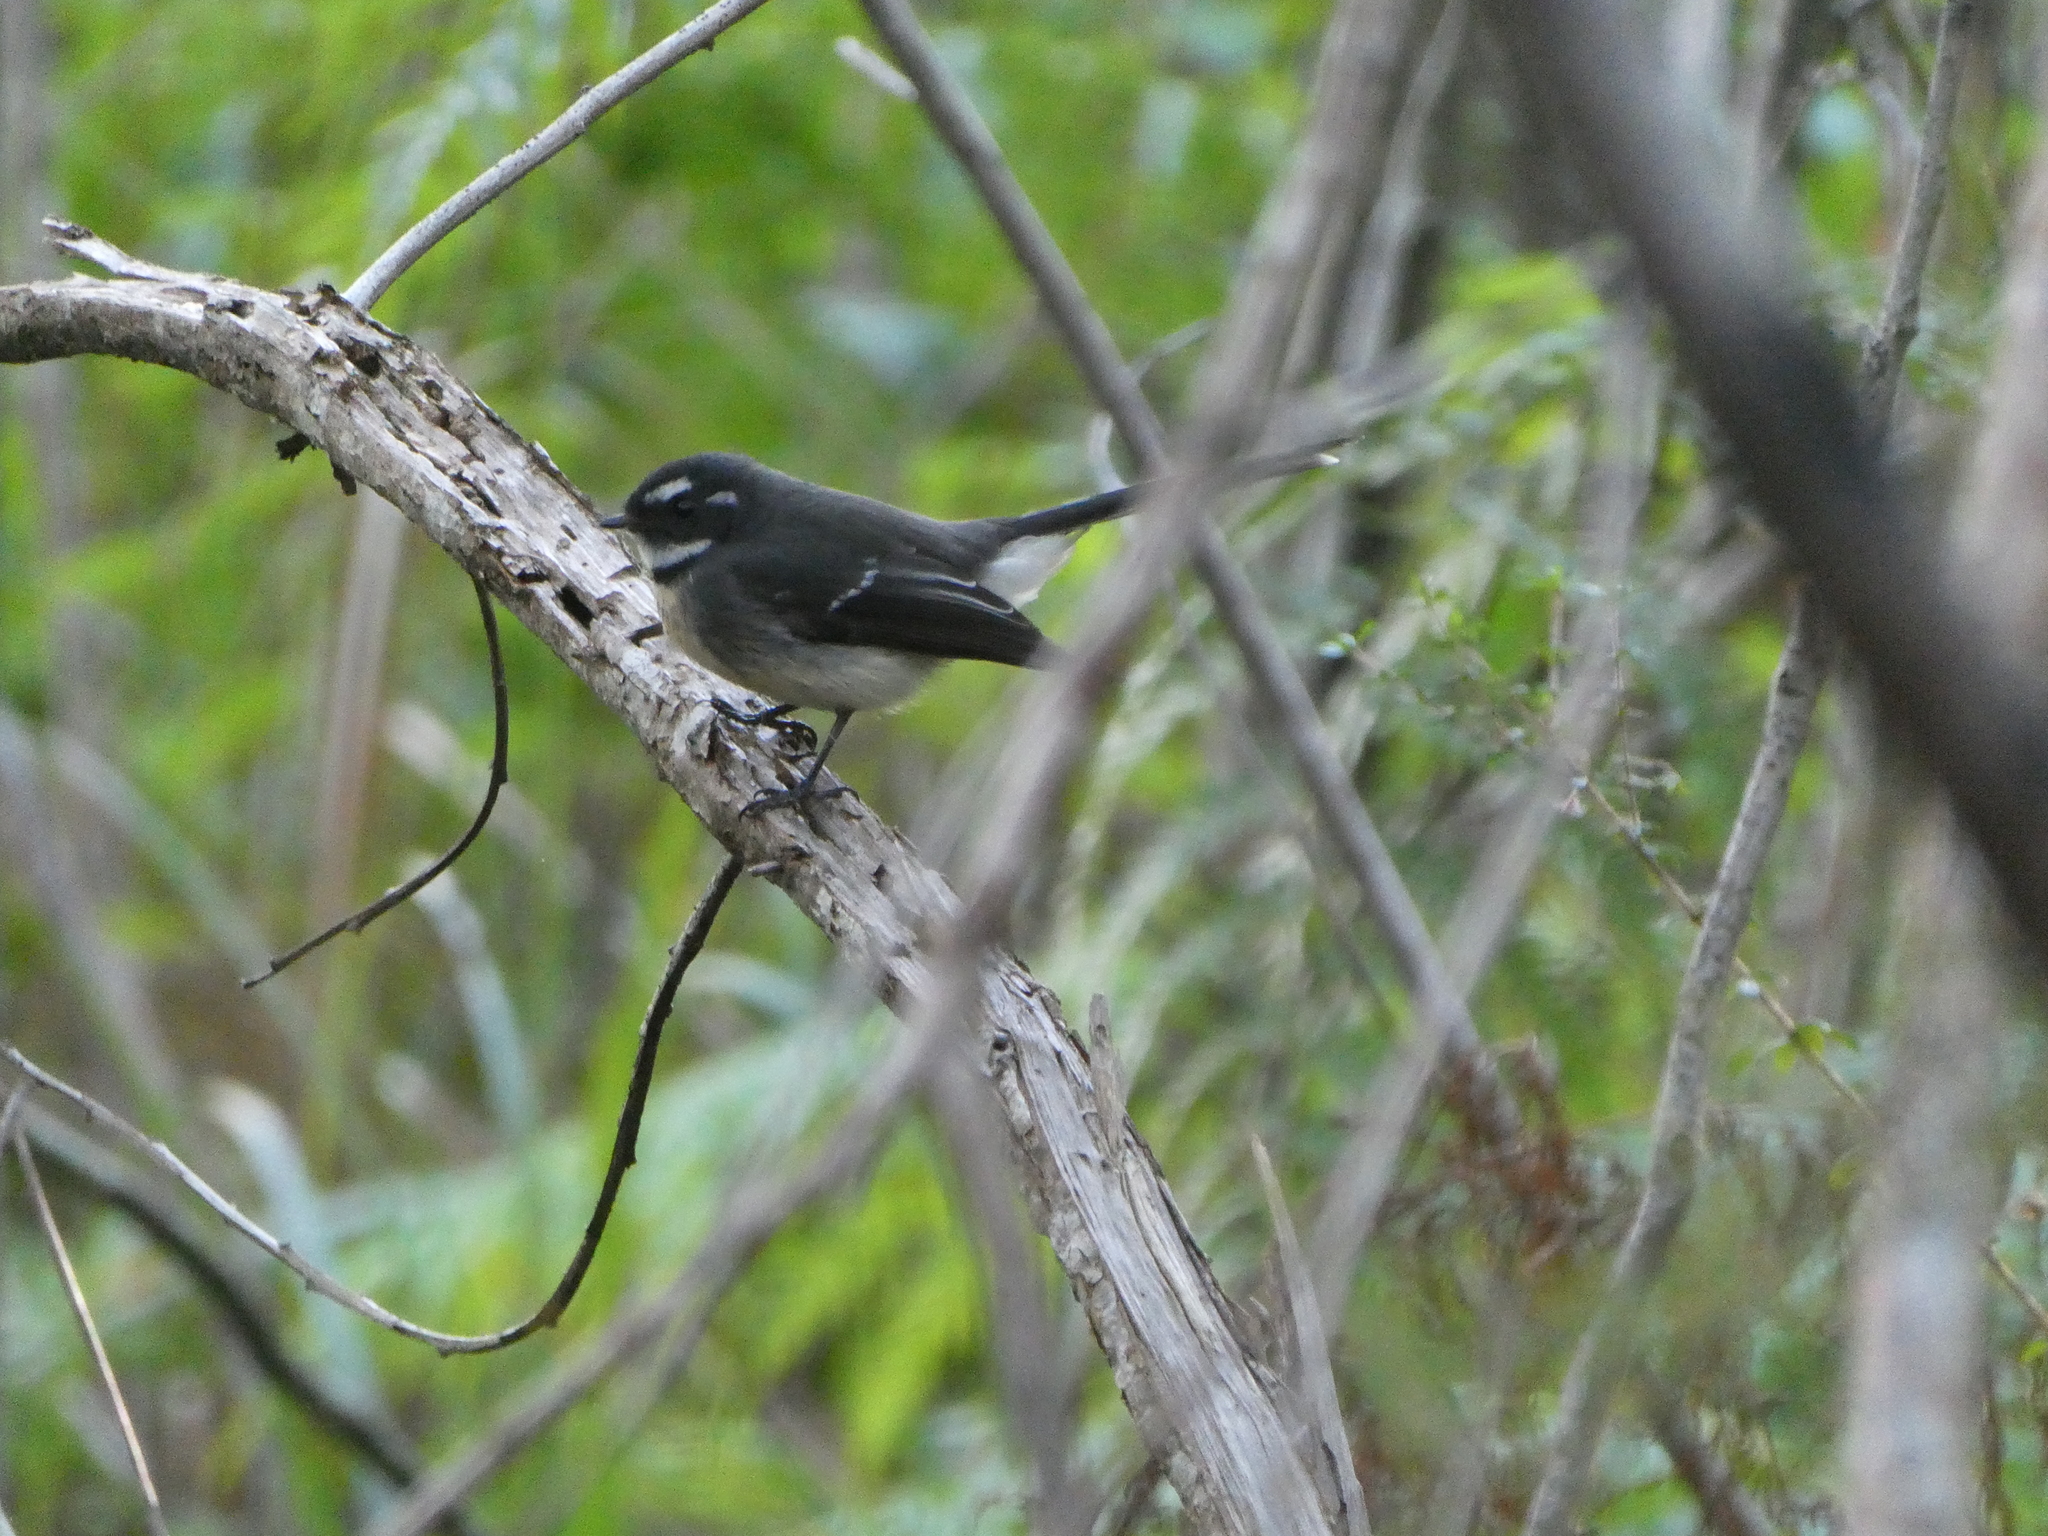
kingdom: Animalia
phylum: Chordata
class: Aves
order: Passeriformes
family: Rhipiduridae
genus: Rhipidura
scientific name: Rhipidura albiscapa
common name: Grey fantail
